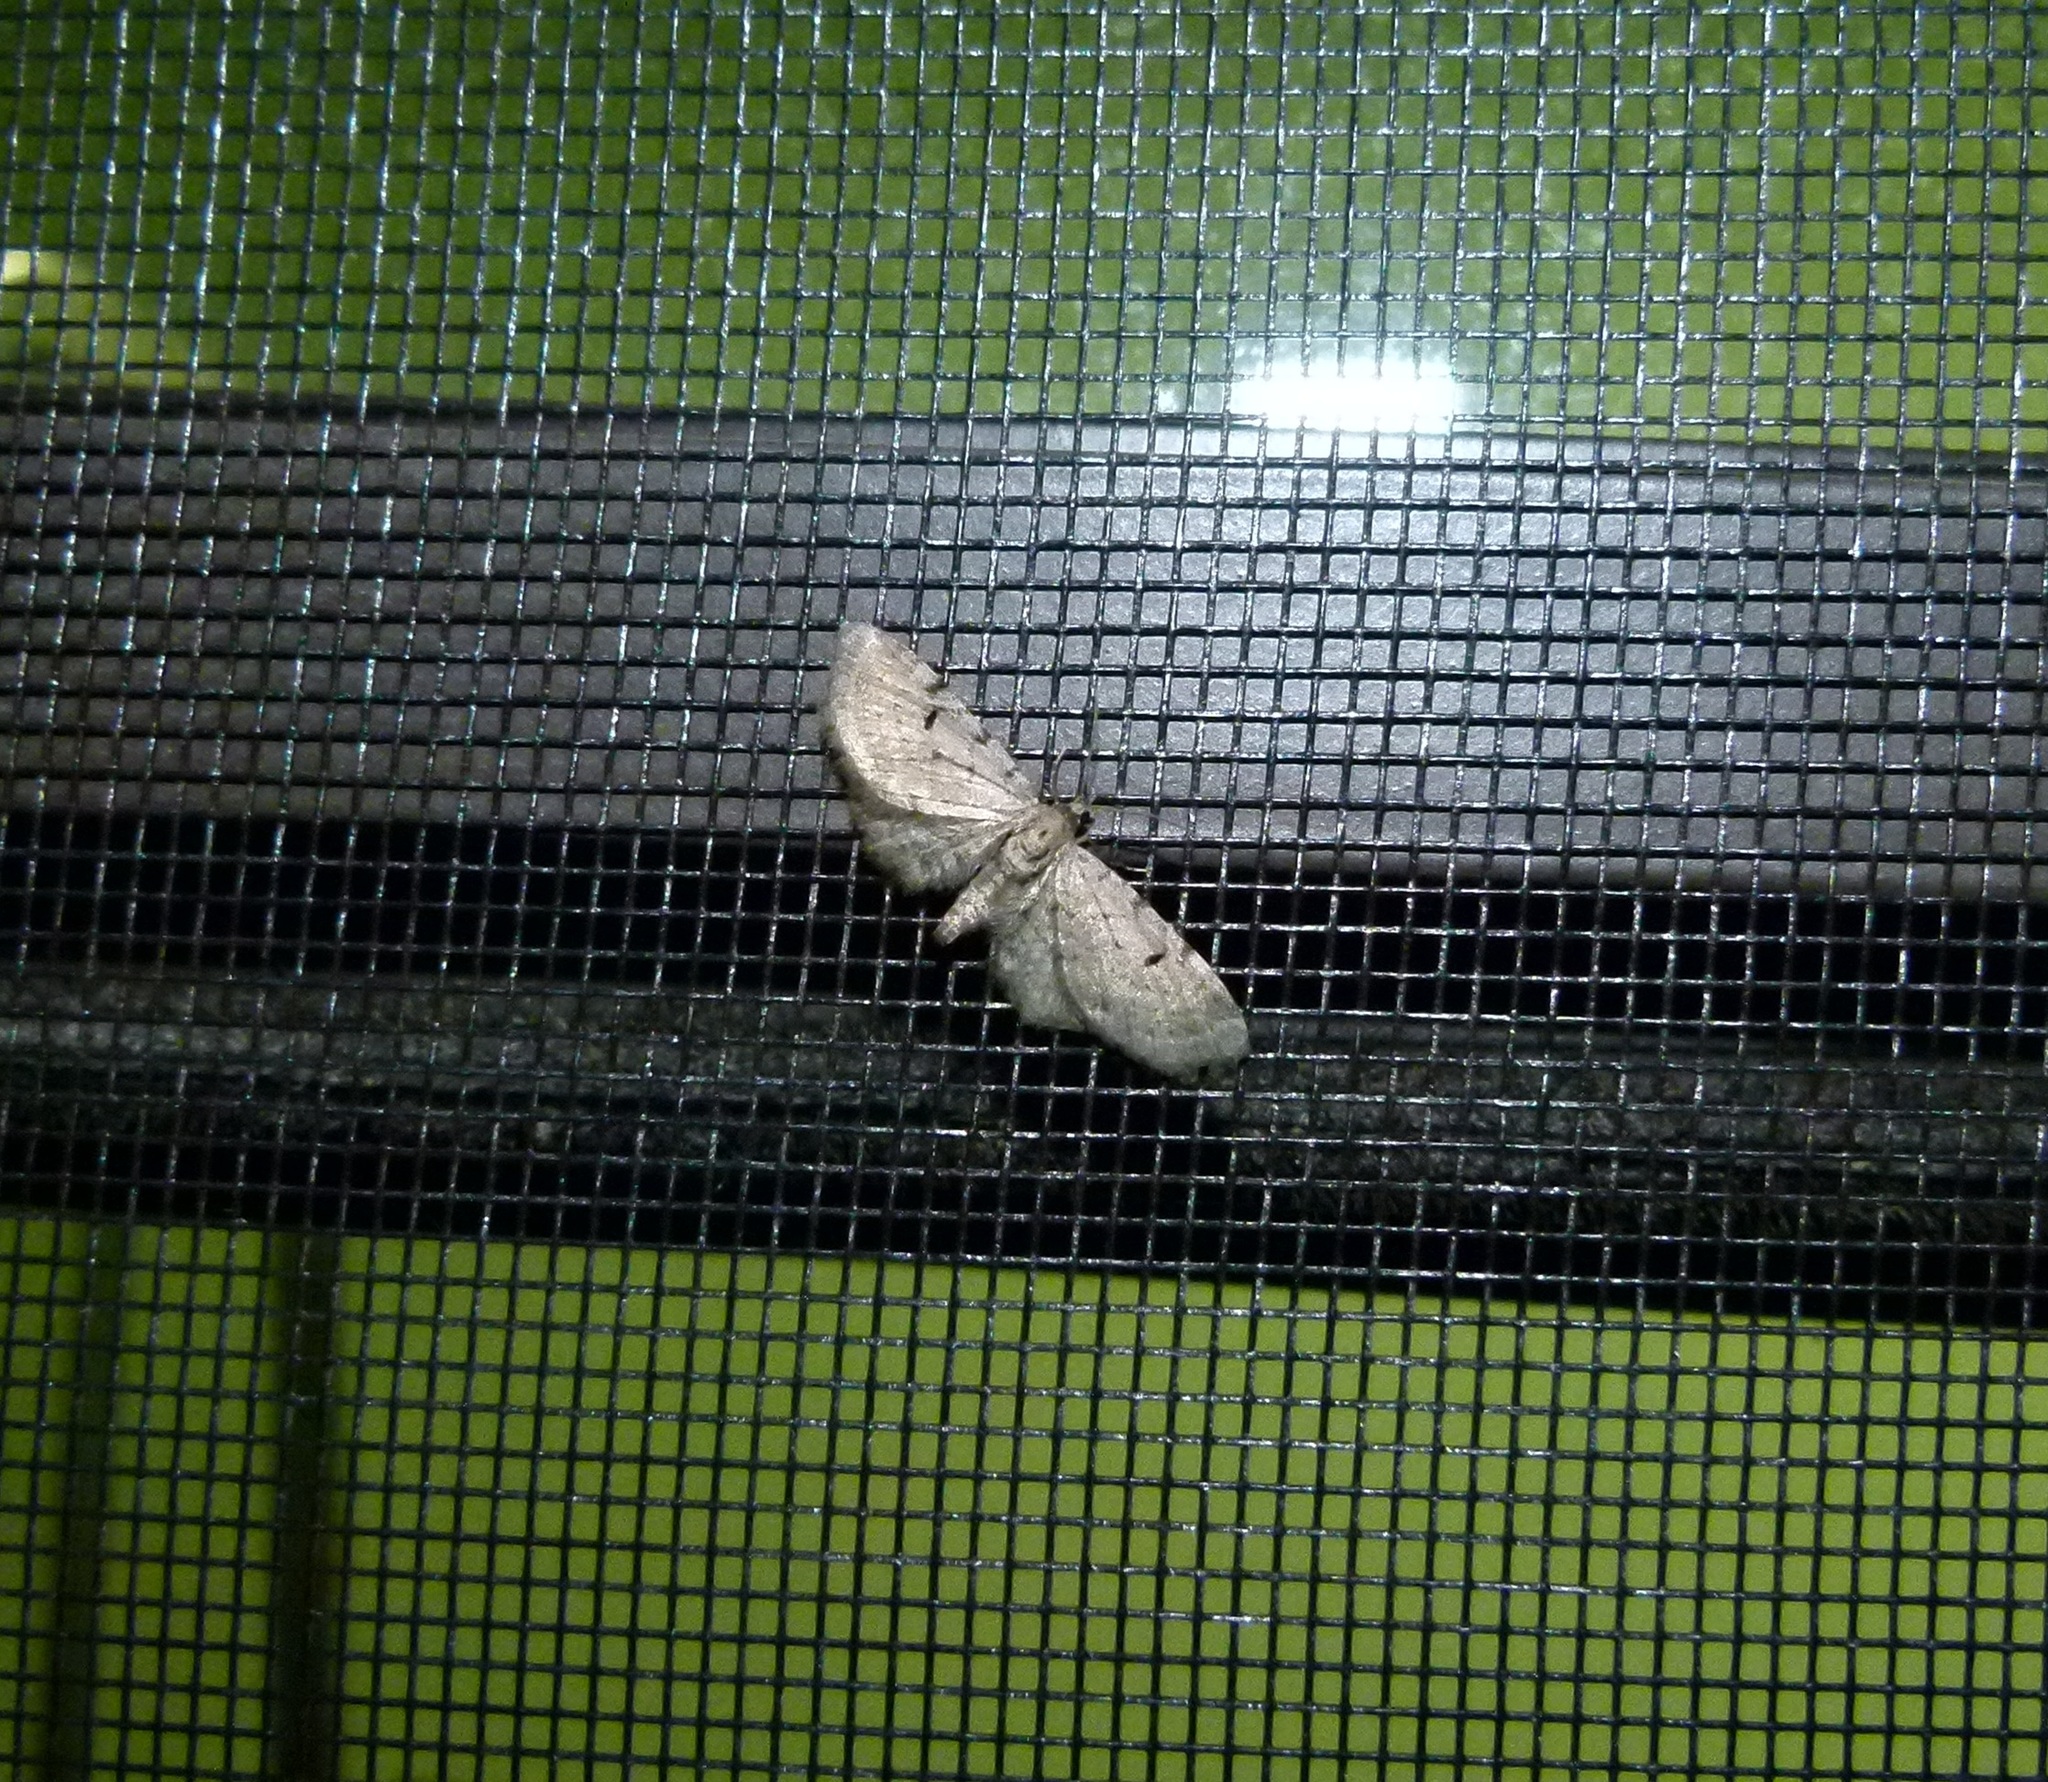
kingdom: Animalia
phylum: Arthropoda
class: Insecta
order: Lepidoptera
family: Geometridae
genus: Eupithecia
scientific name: Eupithecia absinthiata
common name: Wormwood pug
